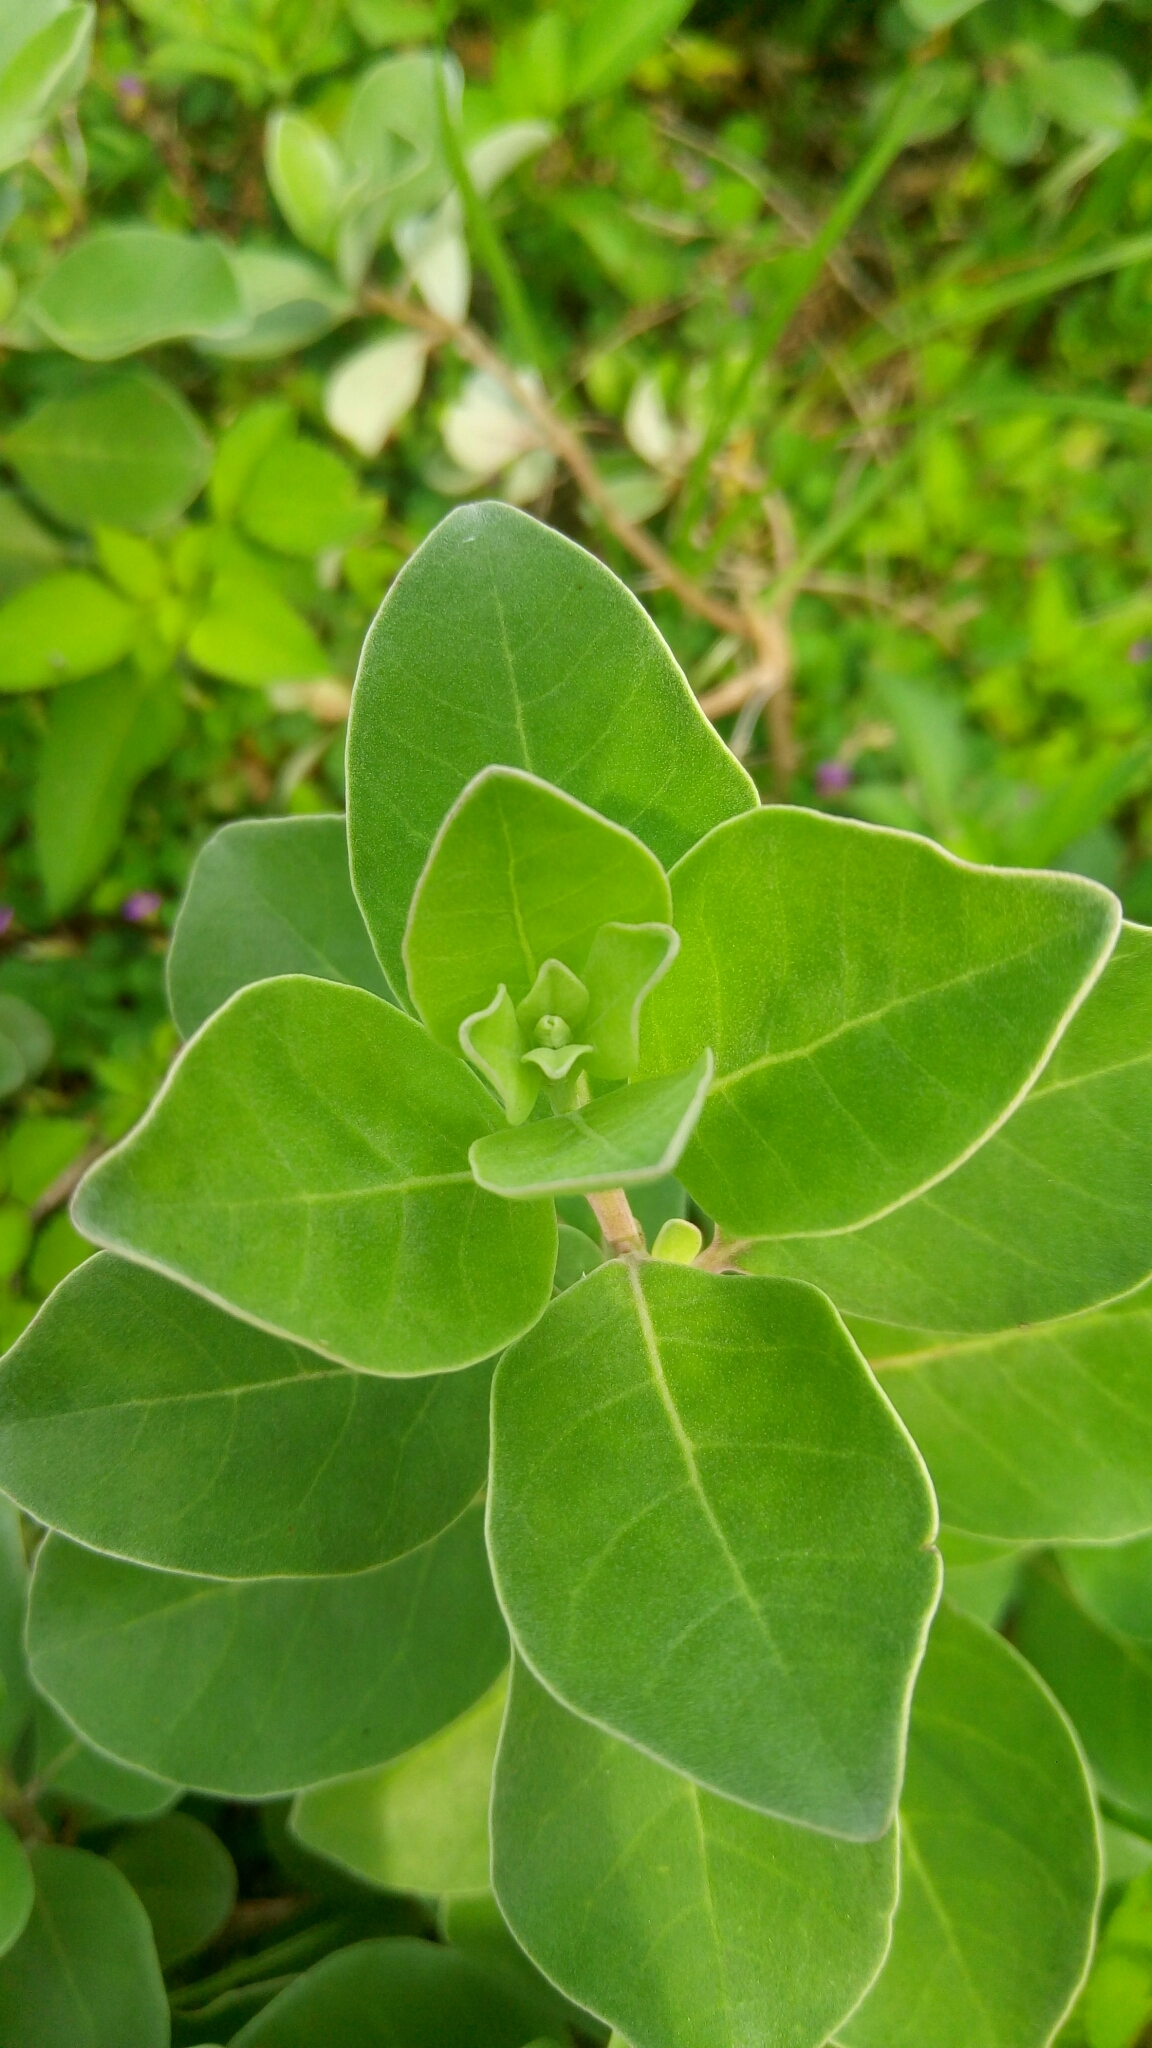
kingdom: Plantae
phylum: Tracheophyta
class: Magnoliopsida
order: Lamiales
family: Lamiaceae
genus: Vitex
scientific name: Vitex rotundifolia
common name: Beach vitex
